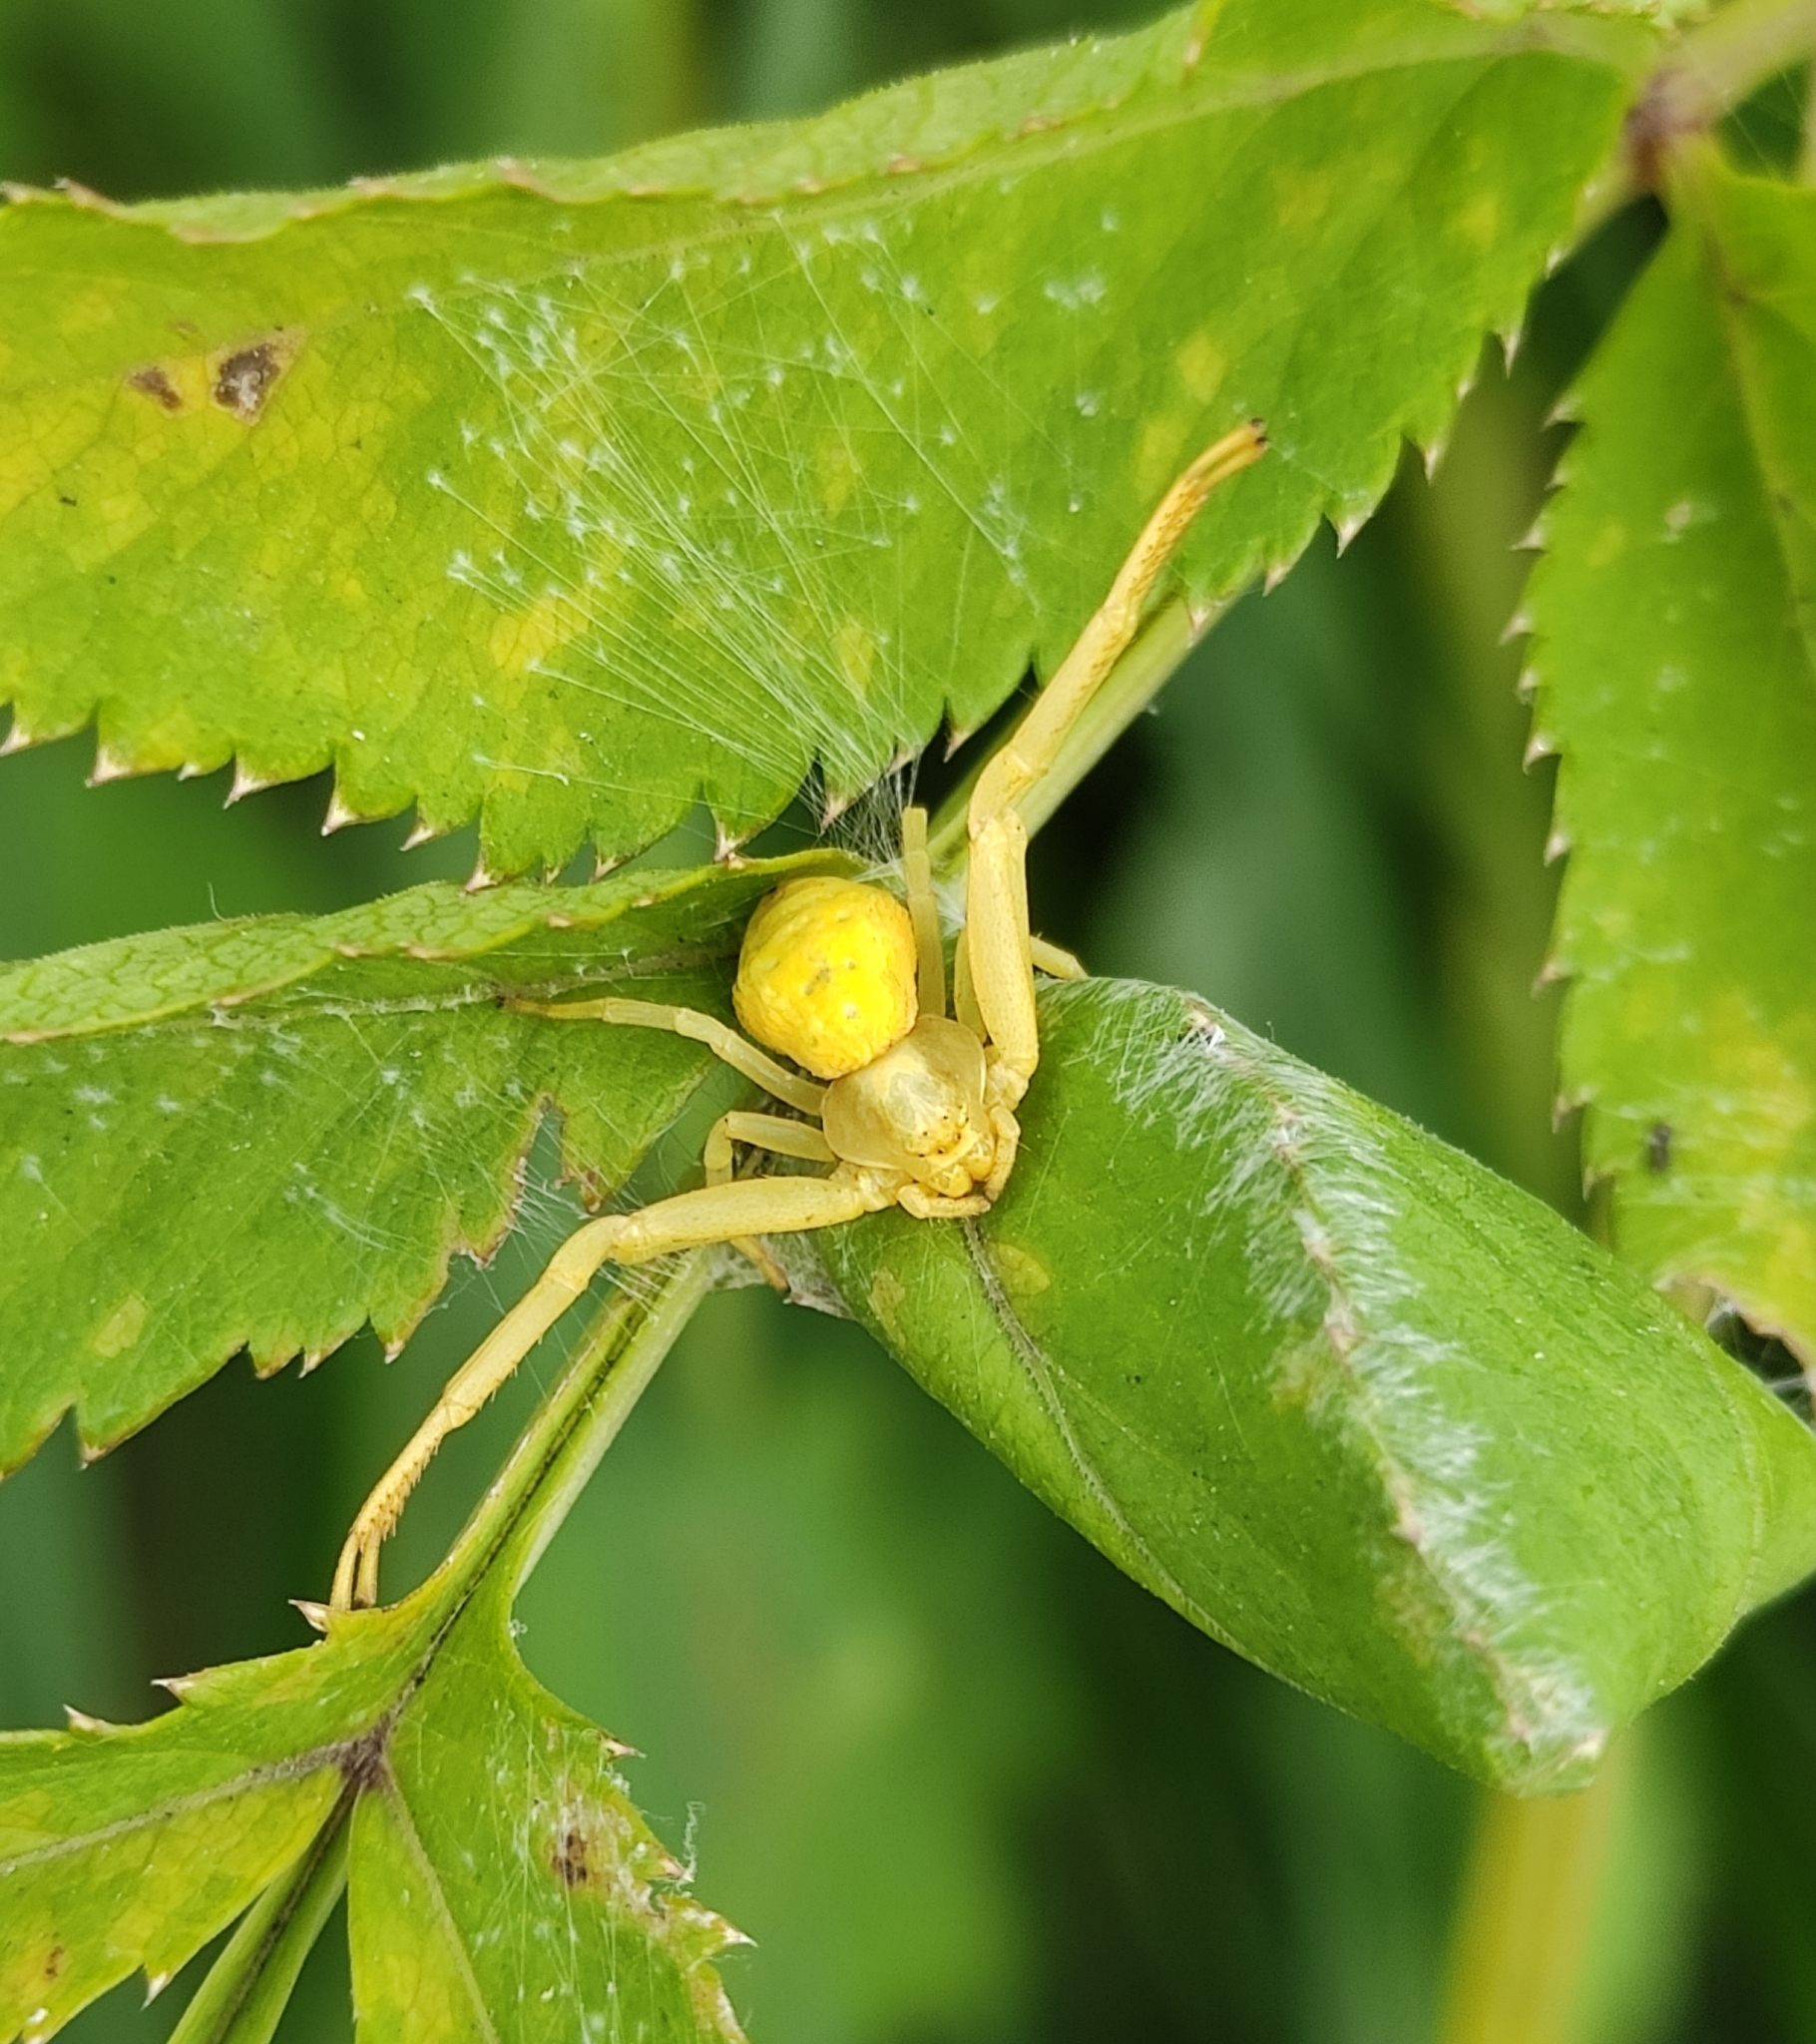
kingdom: Animalia
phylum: Arthropoda
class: Arachnida
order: Araneae
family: Thomisidae
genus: Misumena
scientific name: Misumena vatia
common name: Goldenrod crab spider
